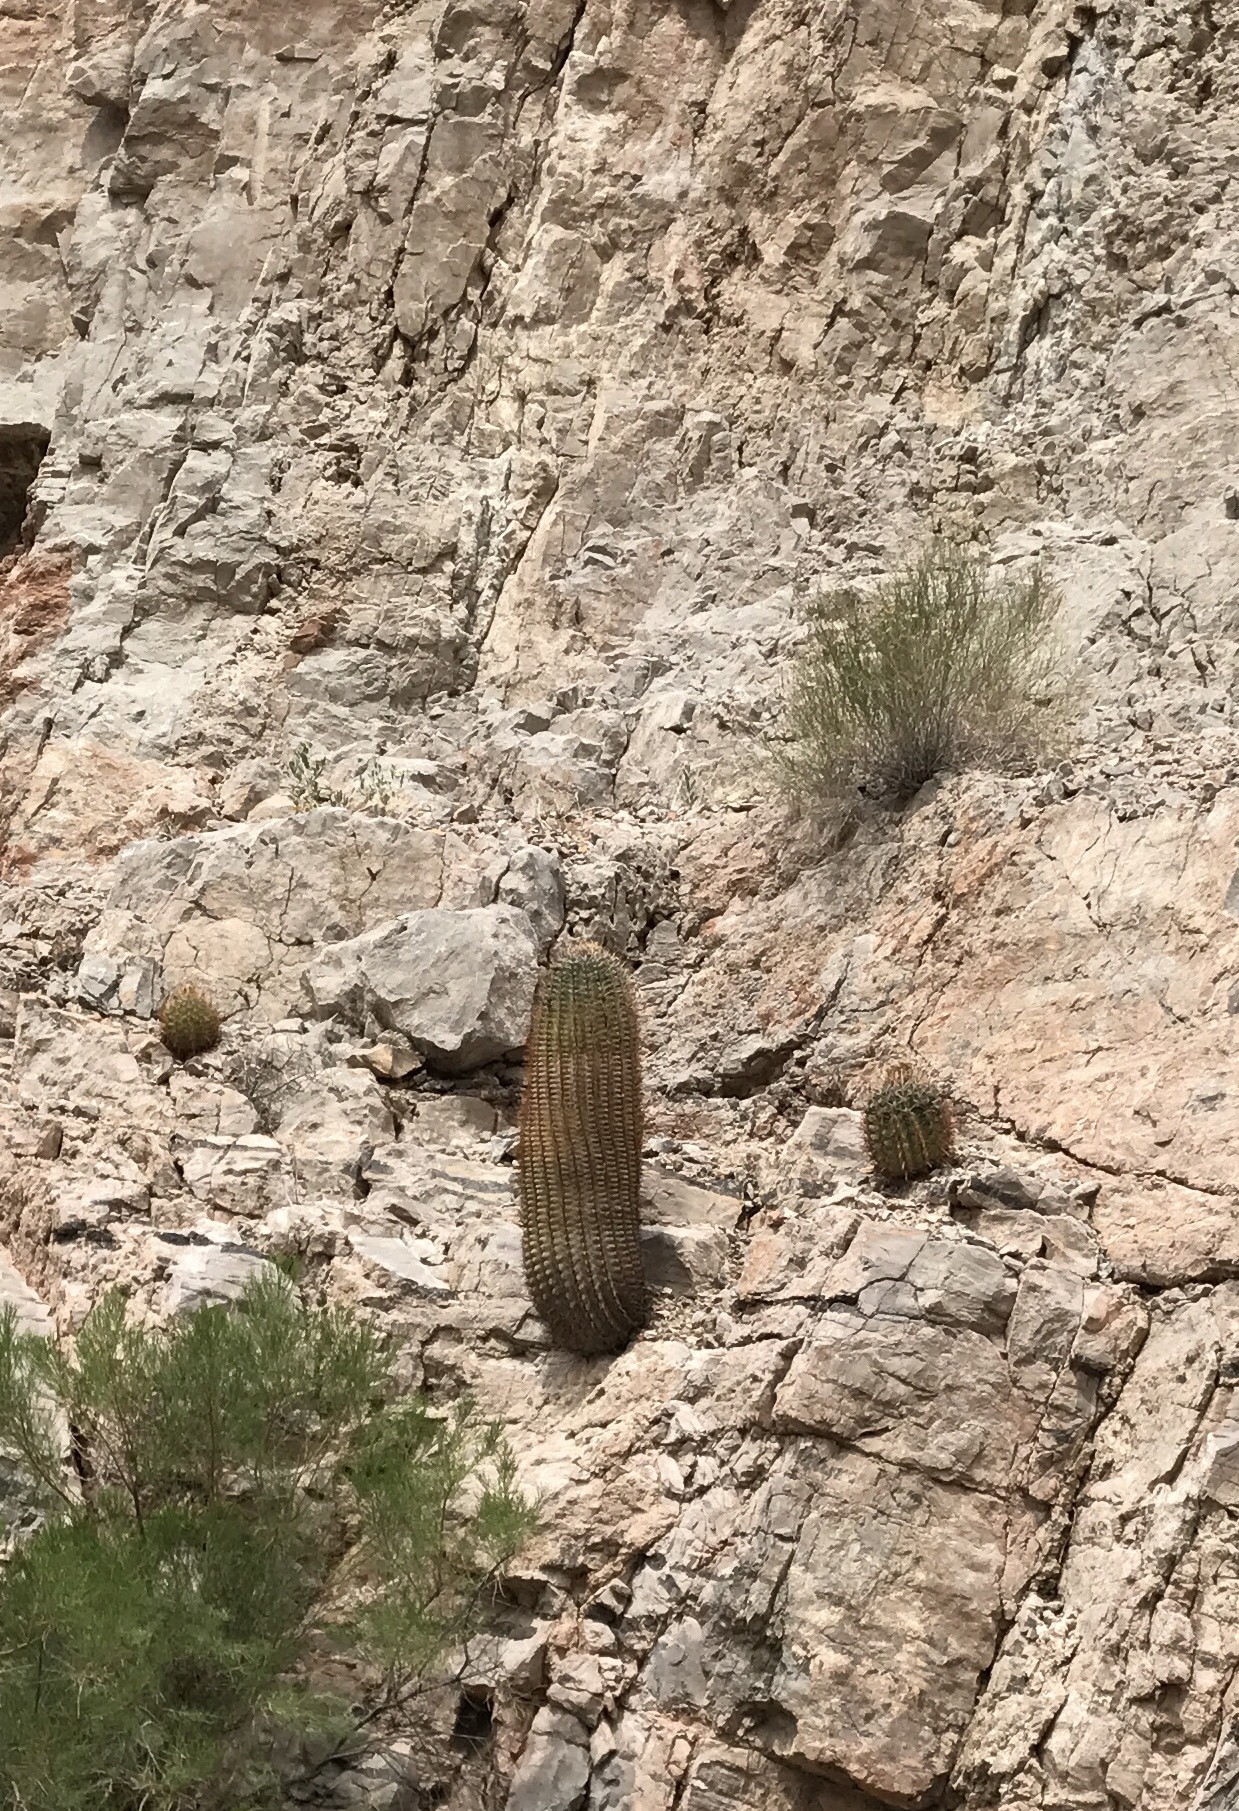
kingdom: Plantae
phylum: Tracheophyta
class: Magnoliopsida
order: Caryophyllales
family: Cactaceae
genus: Ferocactus
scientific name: Ferocactus wislizeni
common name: Candy barrel cactus
